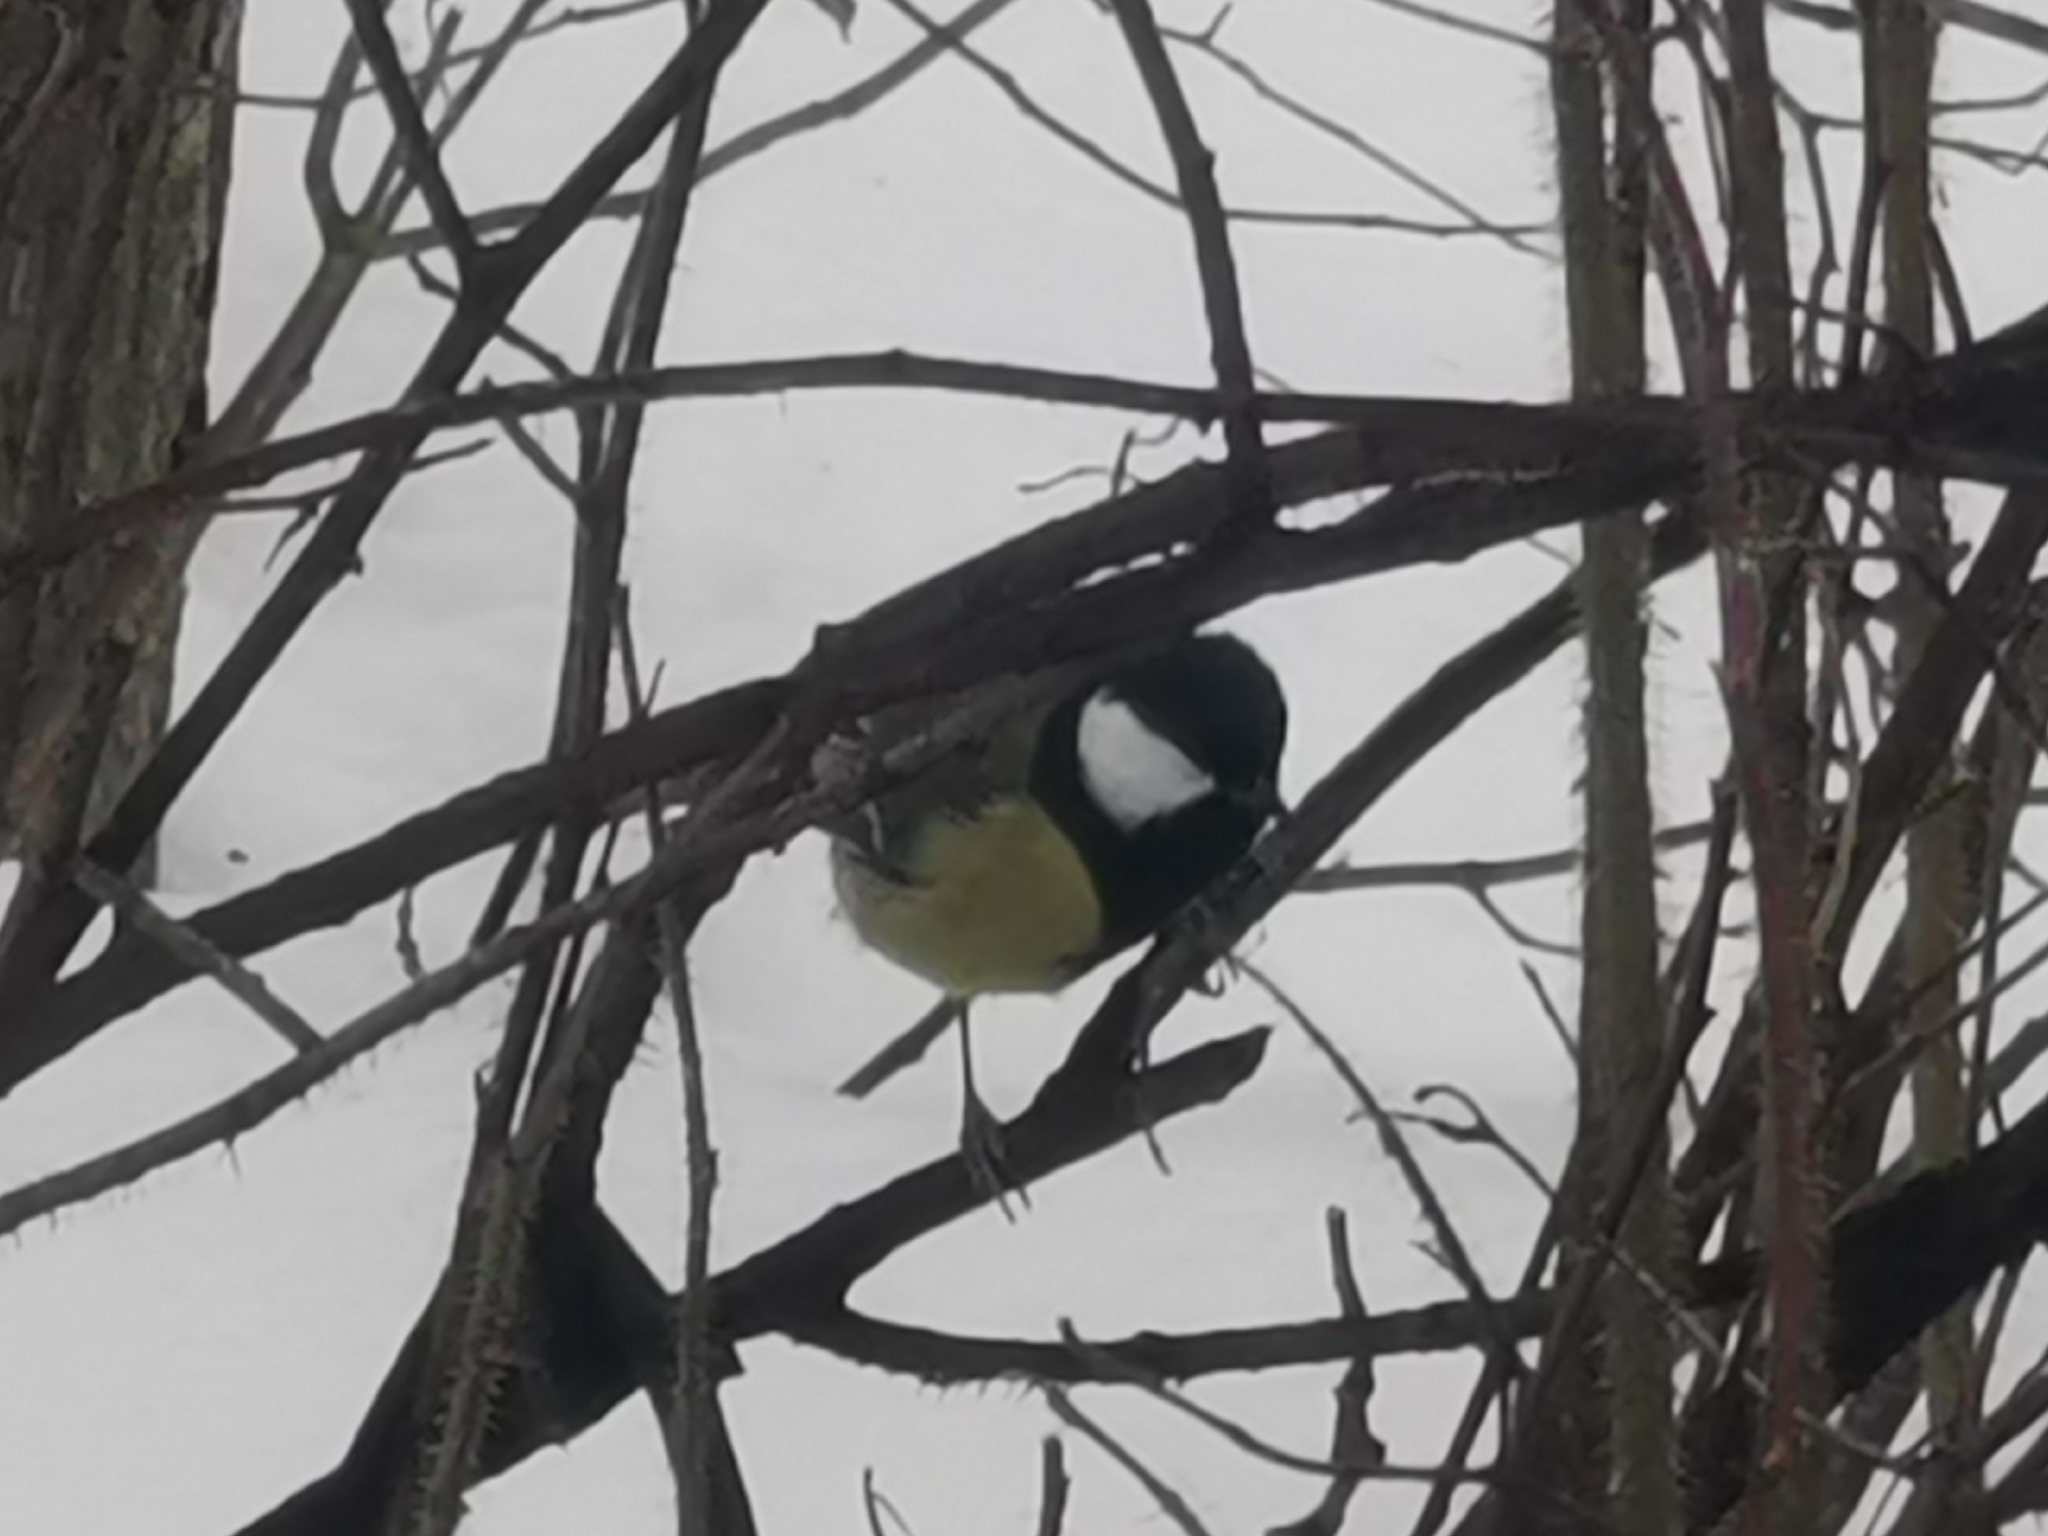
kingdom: Animalia
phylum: Chordata
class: Aves
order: Passeriformes
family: Paridae
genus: Parus
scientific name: Parus major
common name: Great tit
